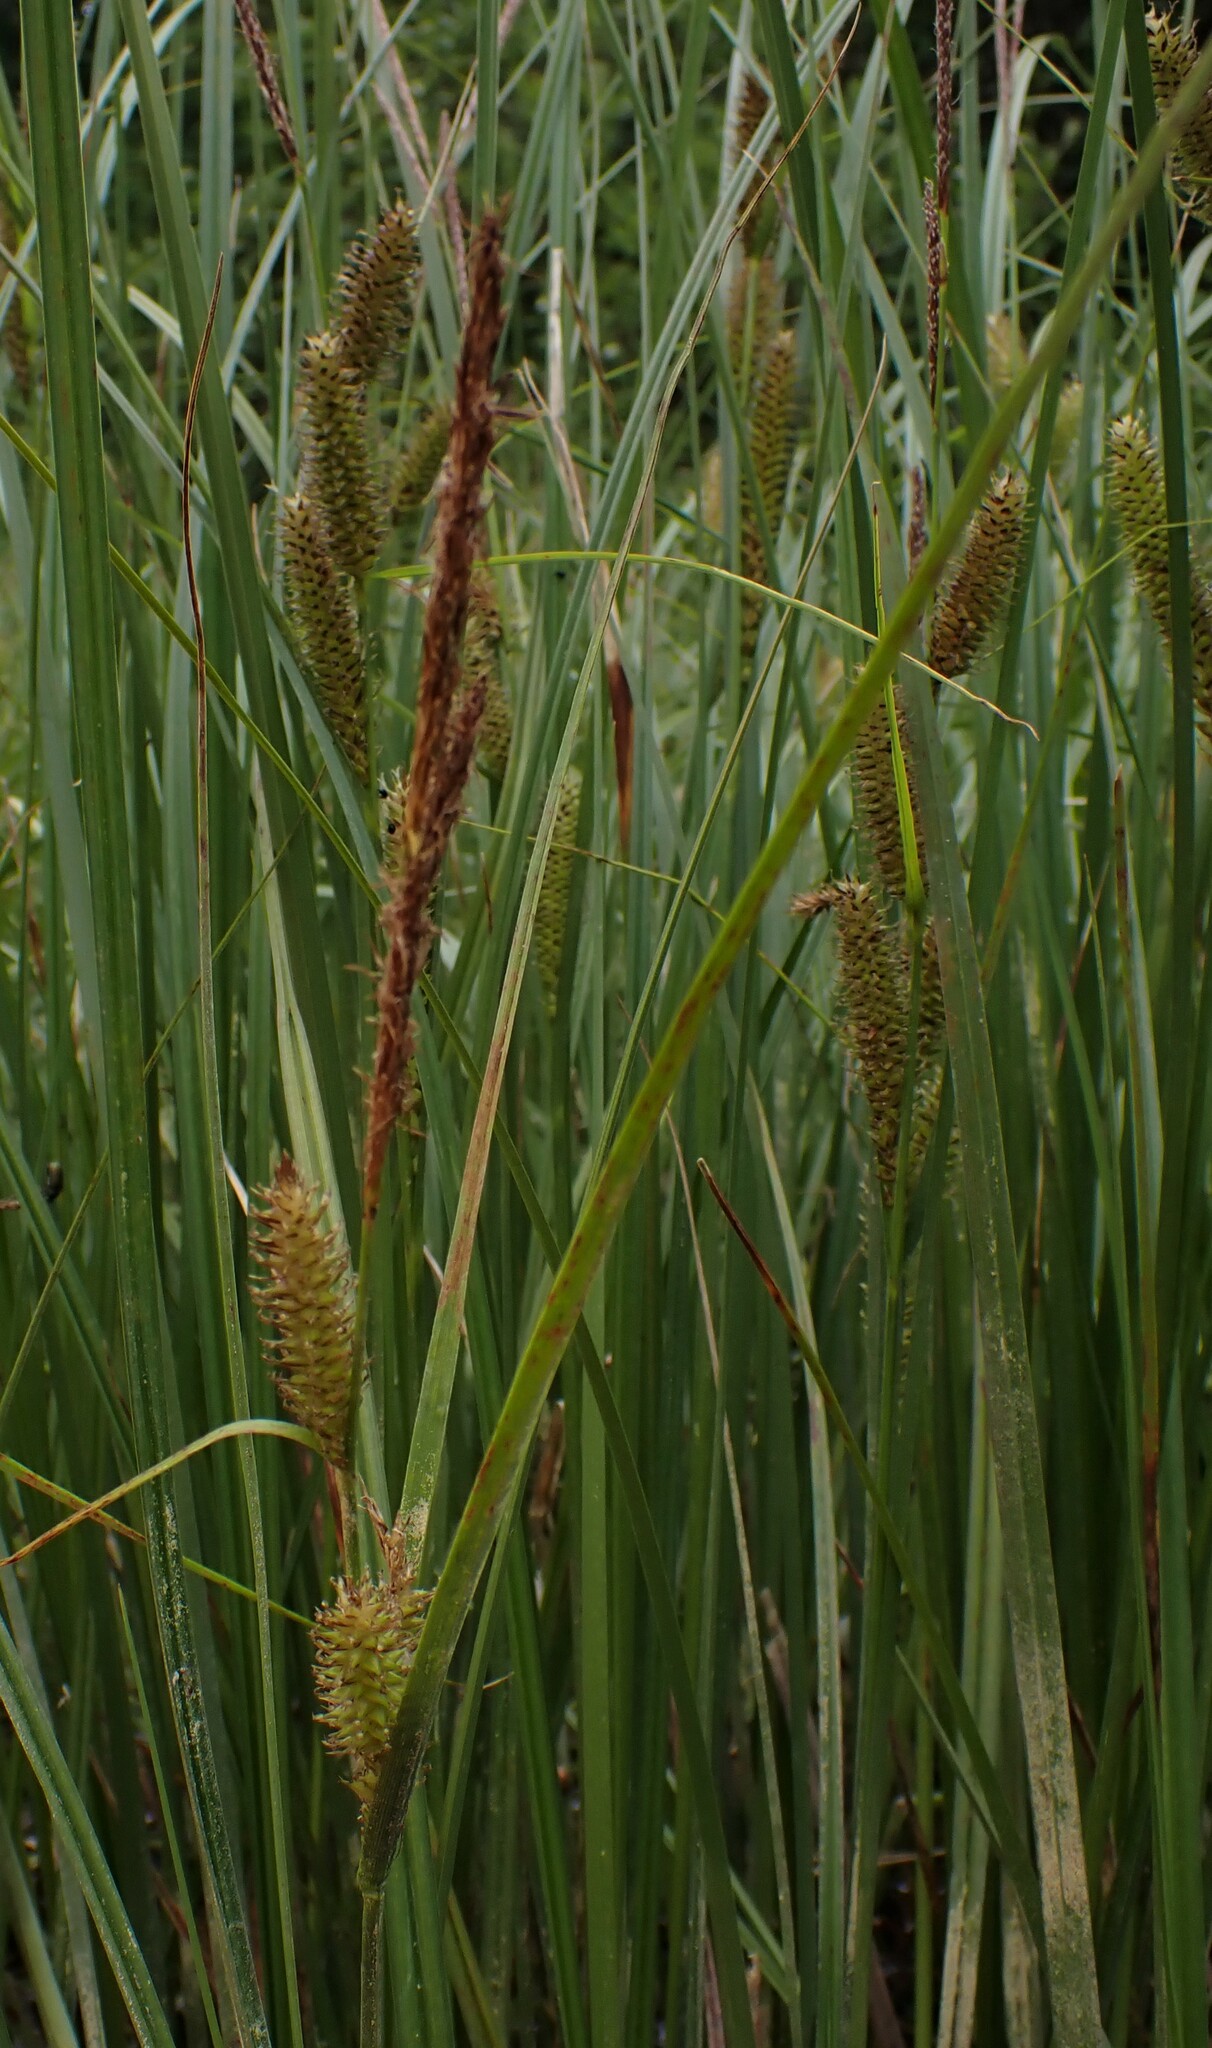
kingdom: Plantae
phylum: Tracheophyta
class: Liliopsida
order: Poales
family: Cyperaceae
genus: Carex
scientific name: Carex utriculata
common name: Beaked sedge
